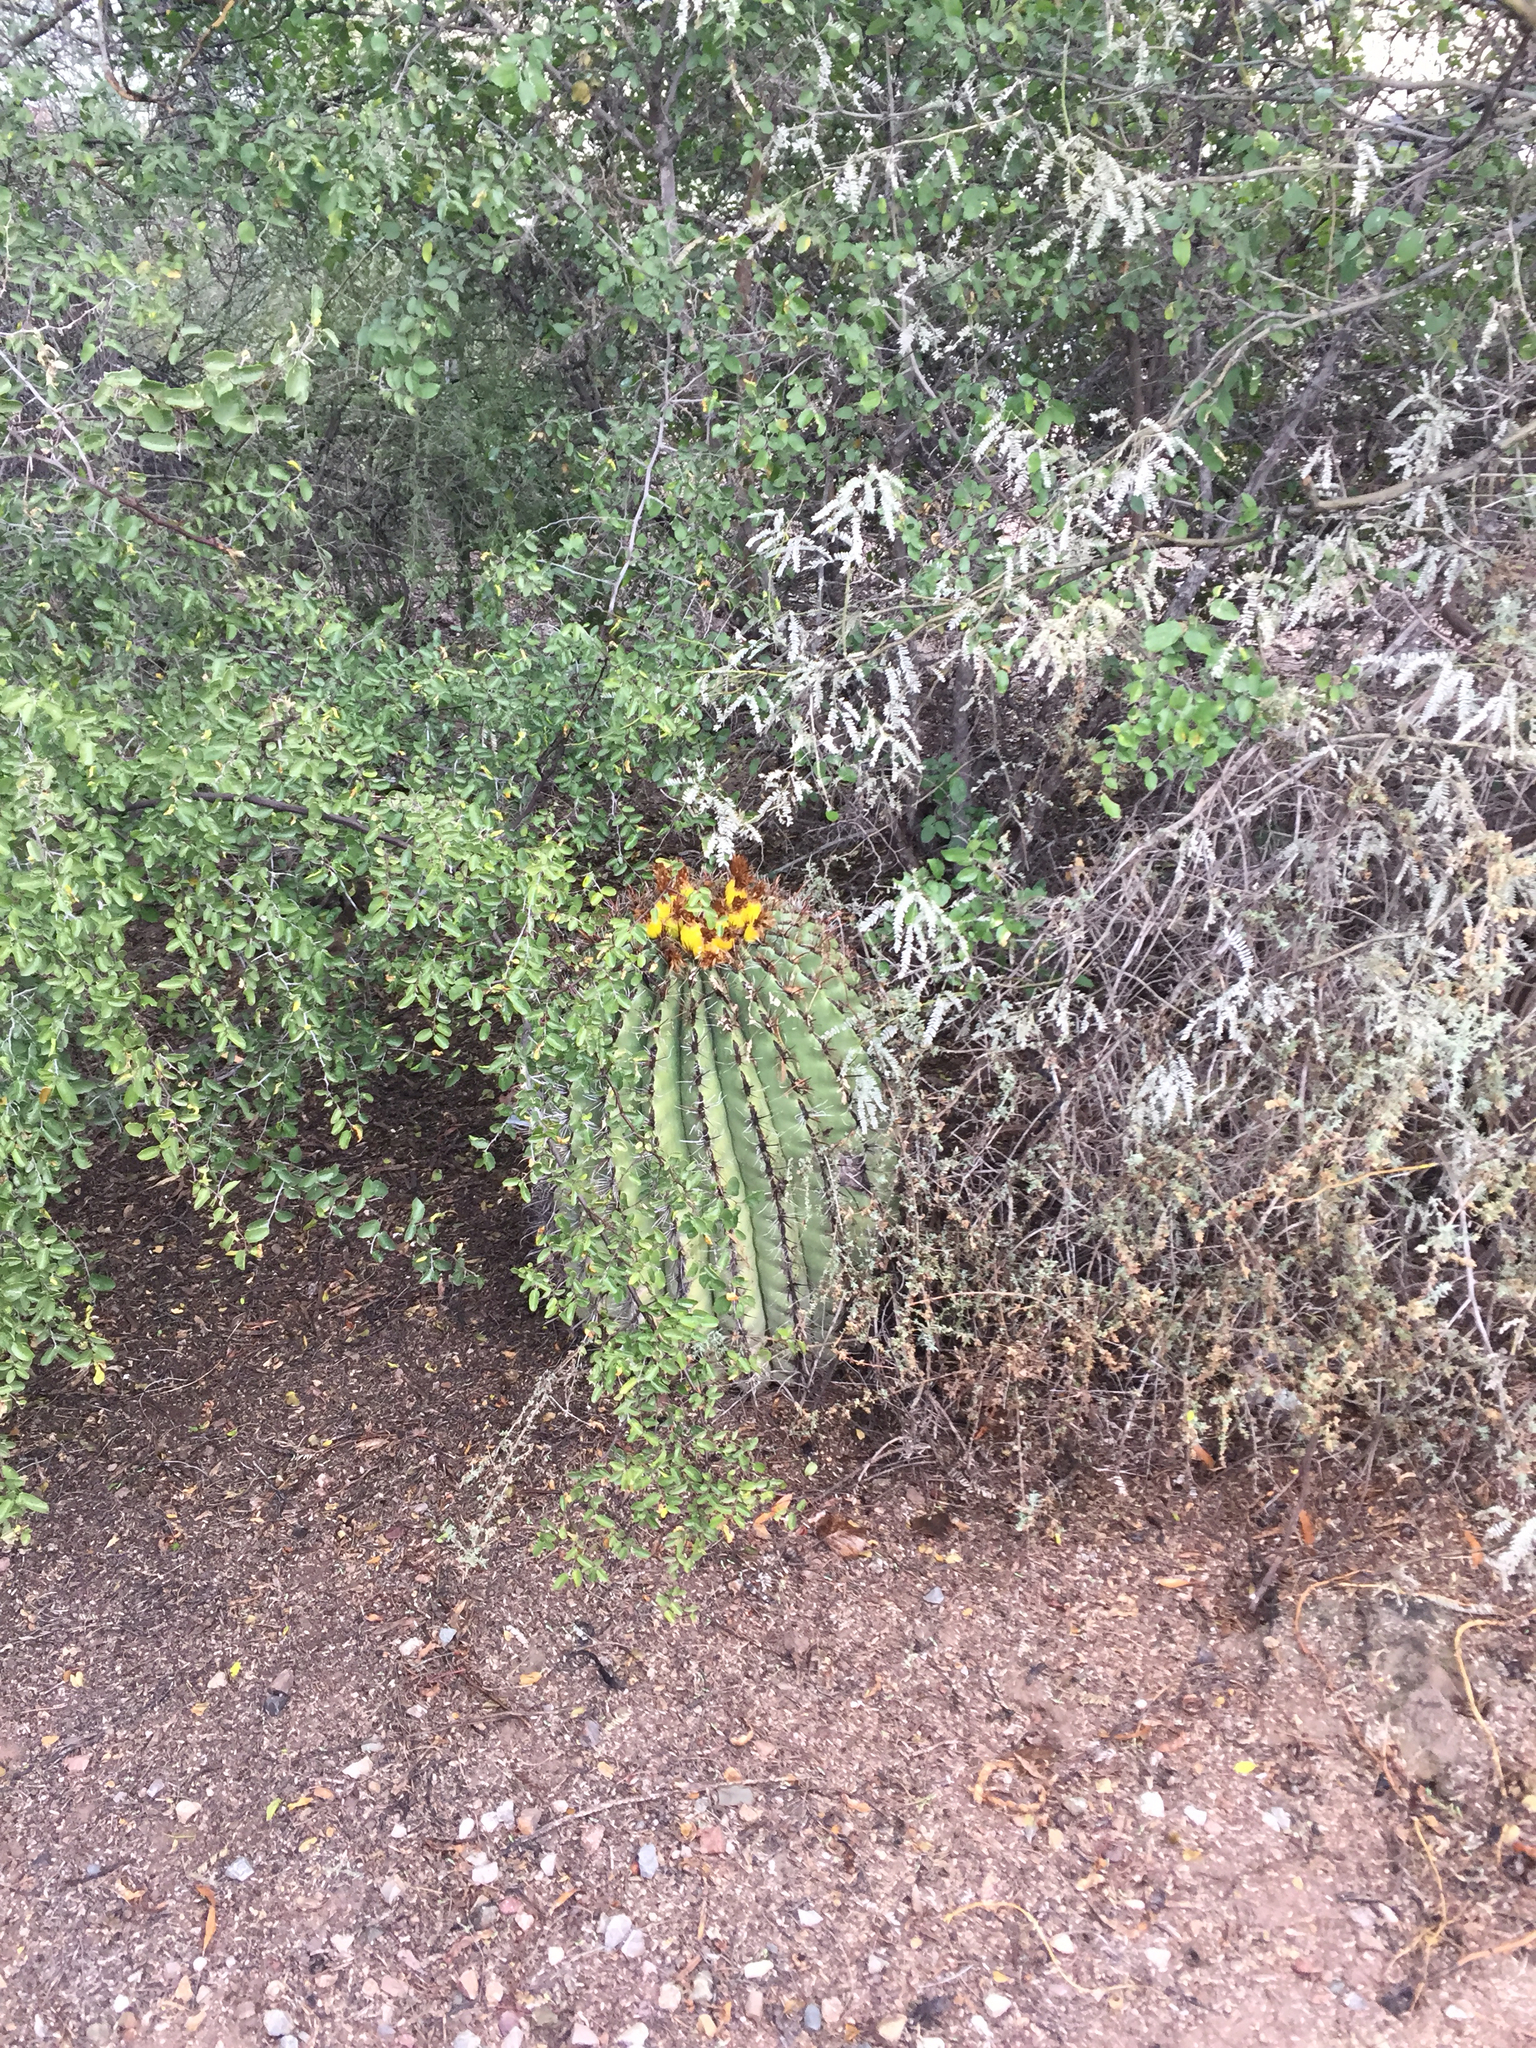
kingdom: Plantae
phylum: Tracheophyta
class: Magnoliopsida
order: Caryophyllales
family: Cactaceae
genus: Ferocactus
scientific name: Ferocactus wislizeni
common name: Candy barrel cactus
